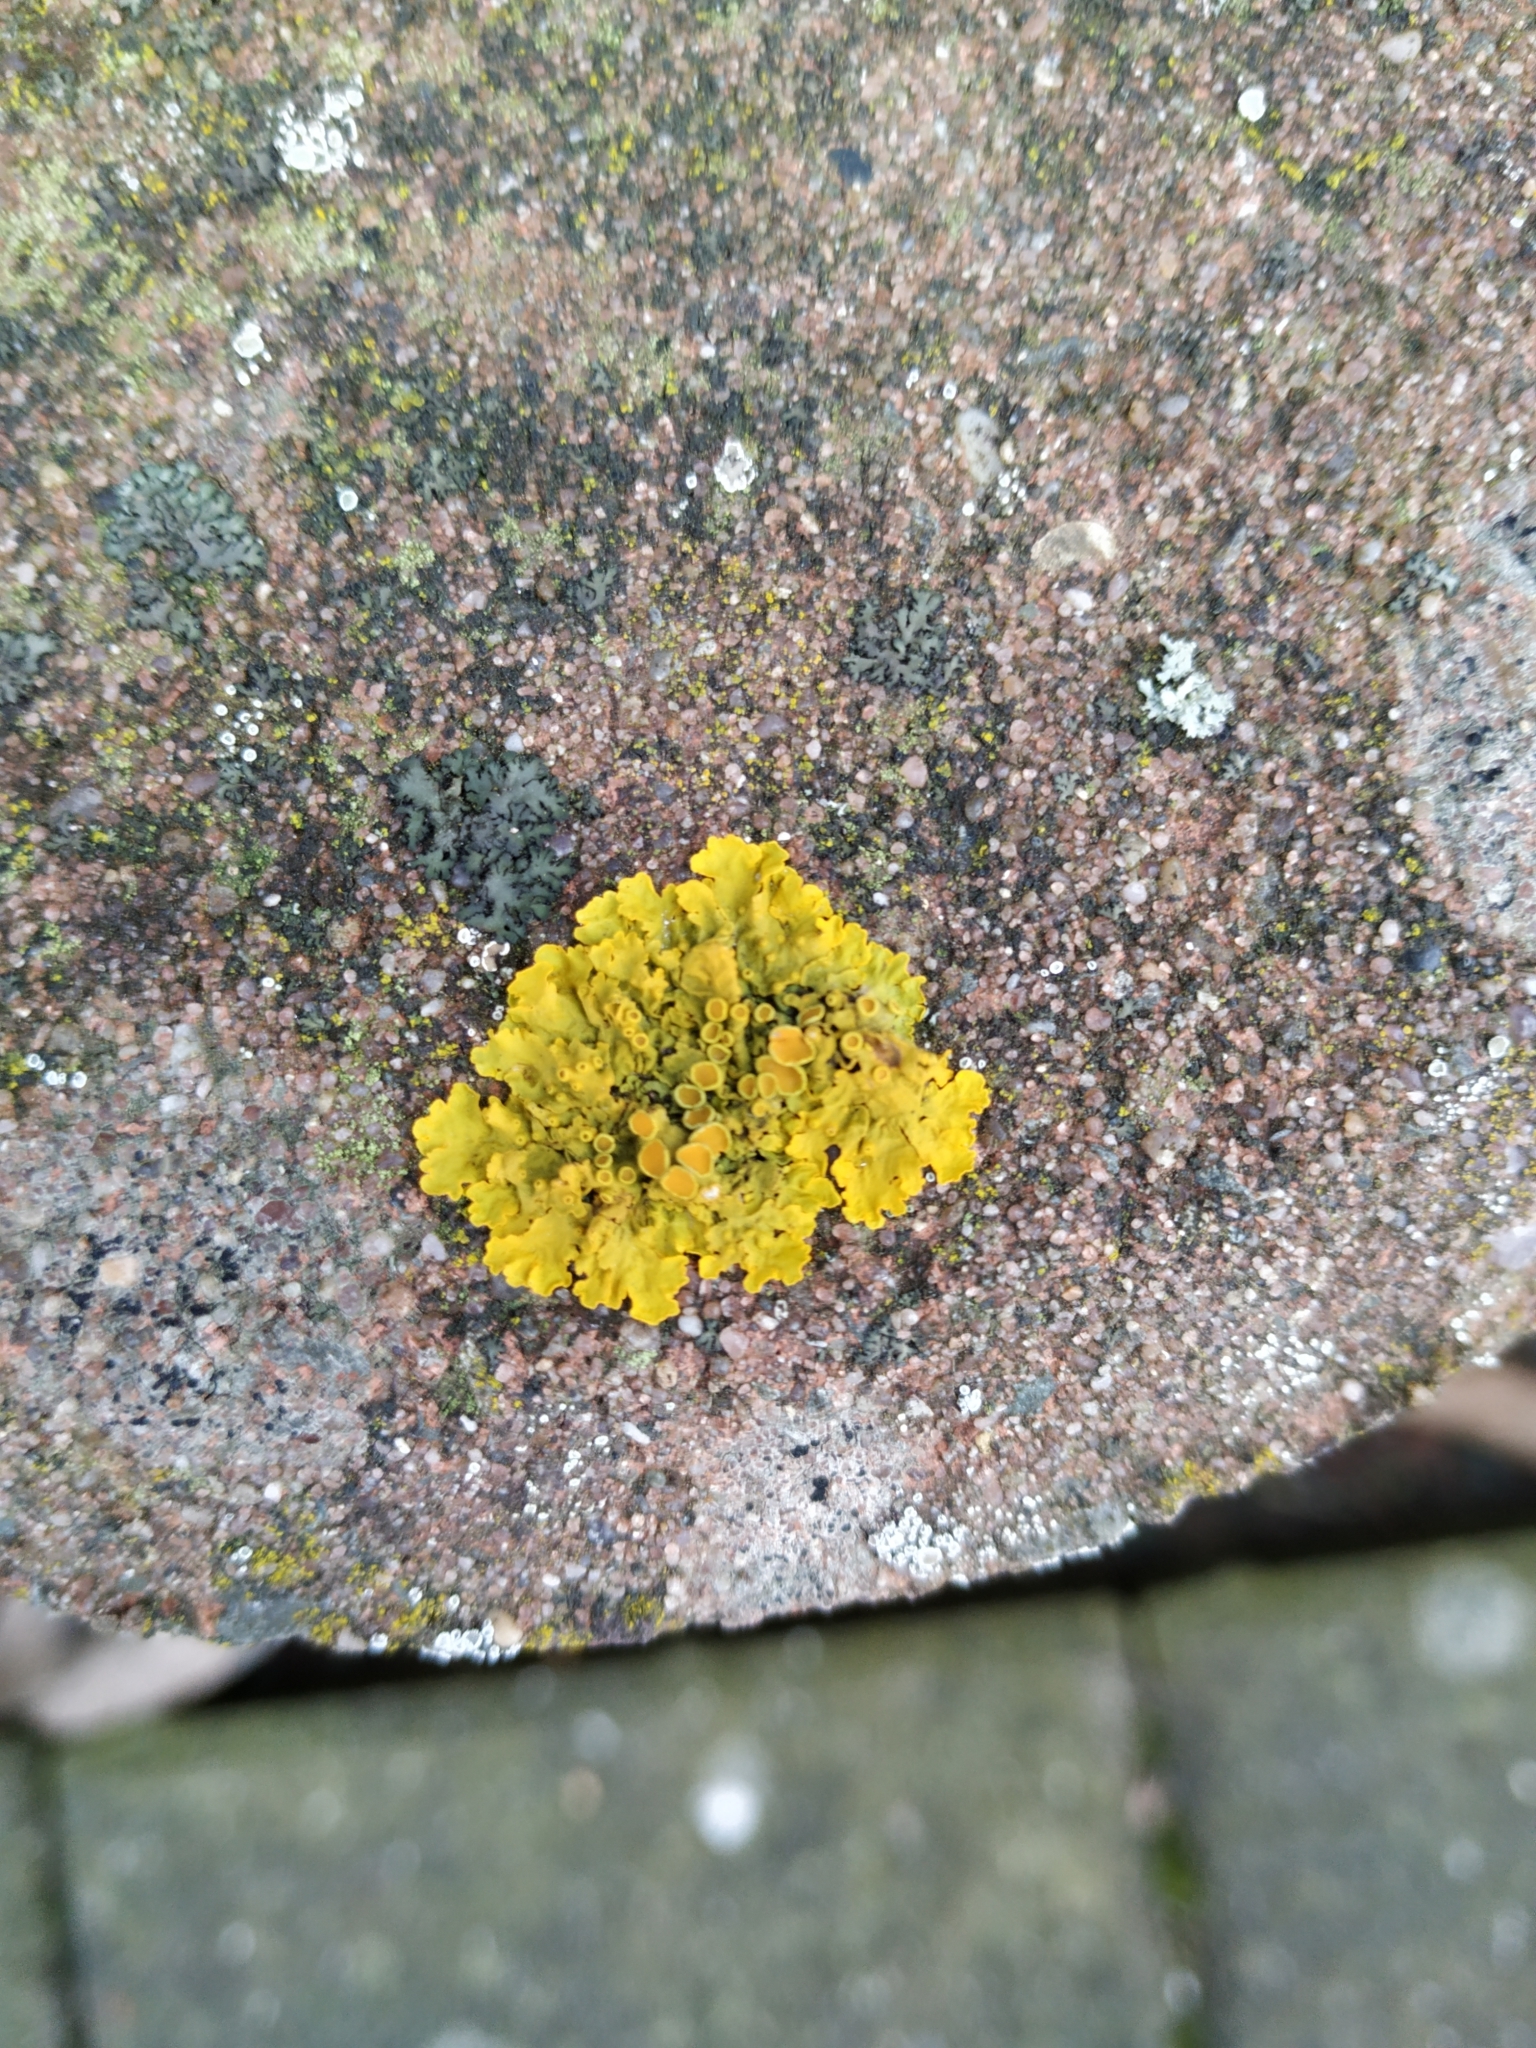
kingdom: Fungi
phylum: Ascomycota
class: Lecanoromycetes
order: Teloschistales
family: Teloschistaceae
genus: Xanthoria
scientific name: Xanthoria parietina
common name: Common orange lichen
